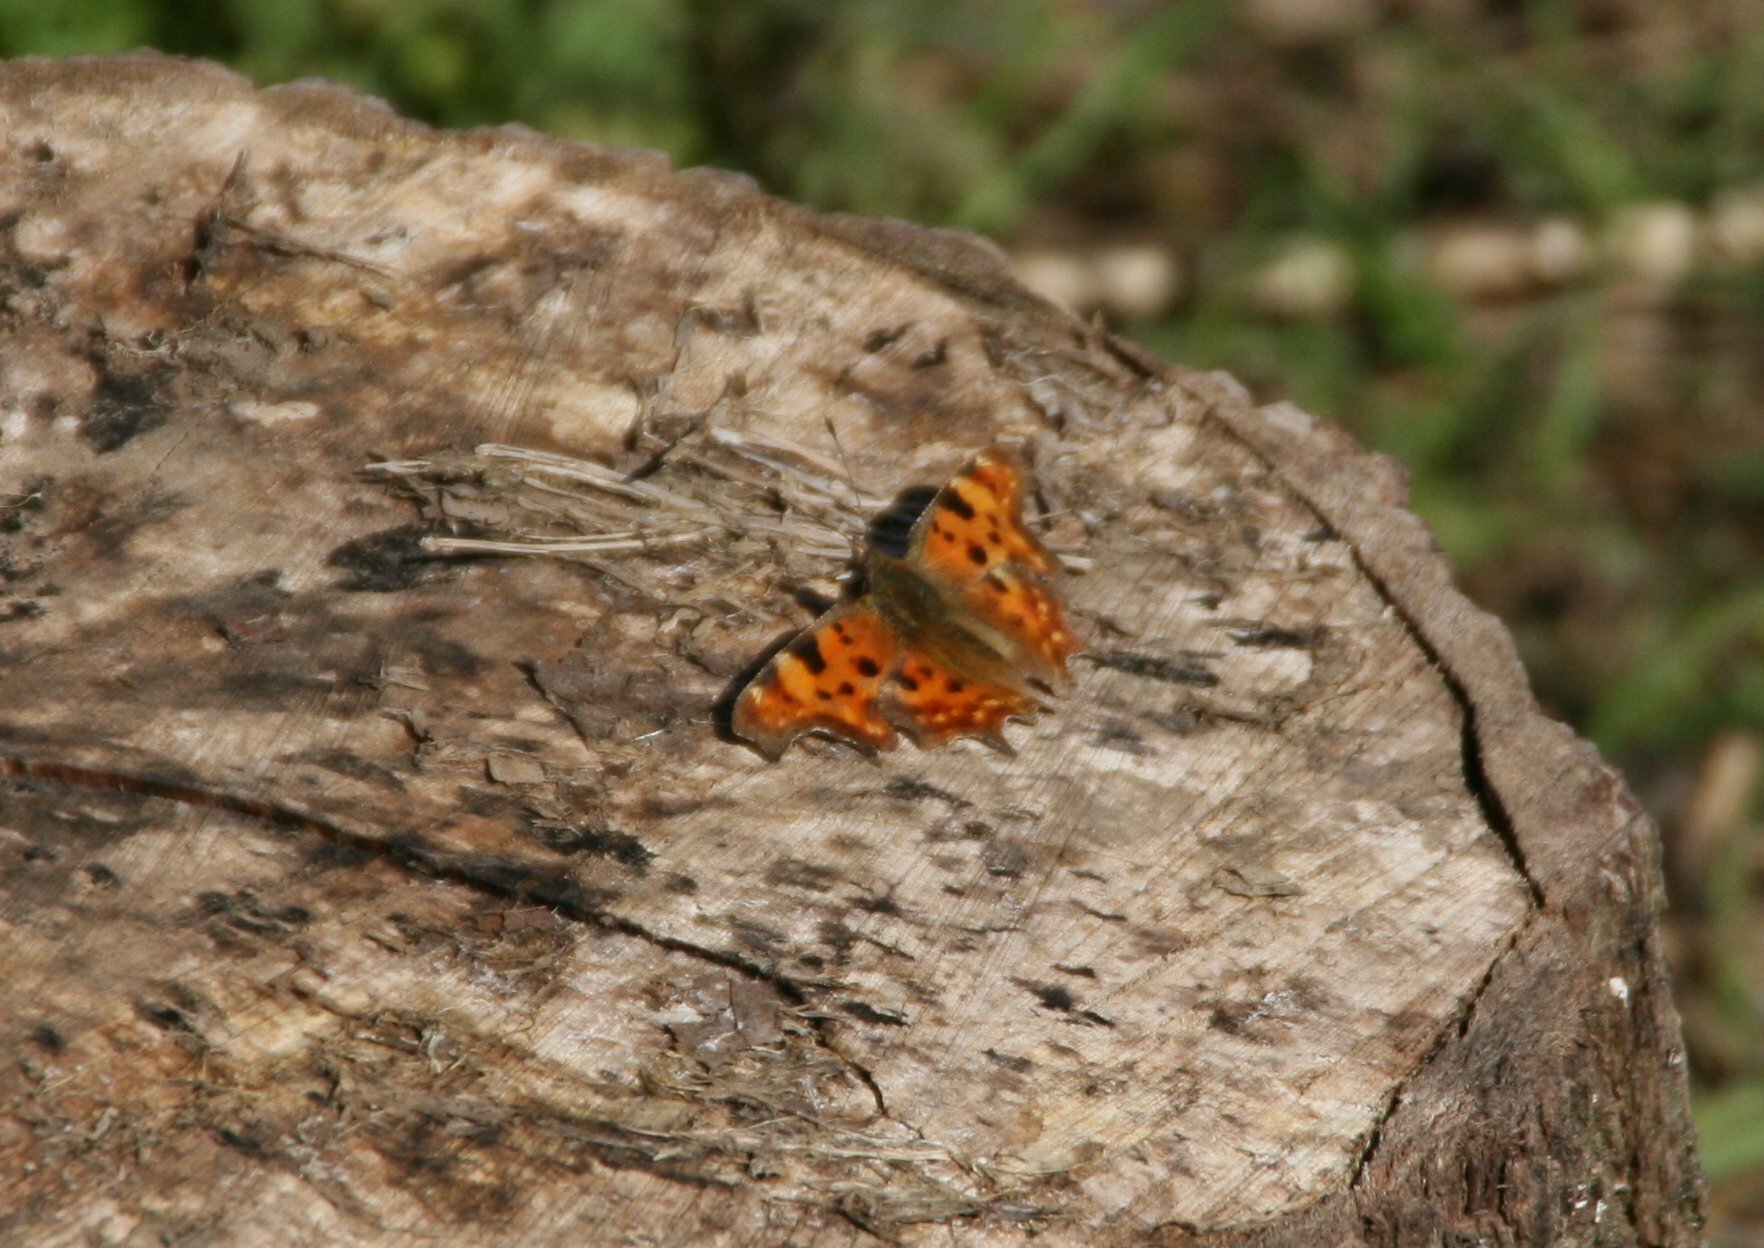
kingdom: Animalia
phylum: Arthropoda
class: Insecta
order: Lepidoptera
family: Nymphalidae
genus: Polygonia
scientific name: Polygonia c-album
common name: Comma
